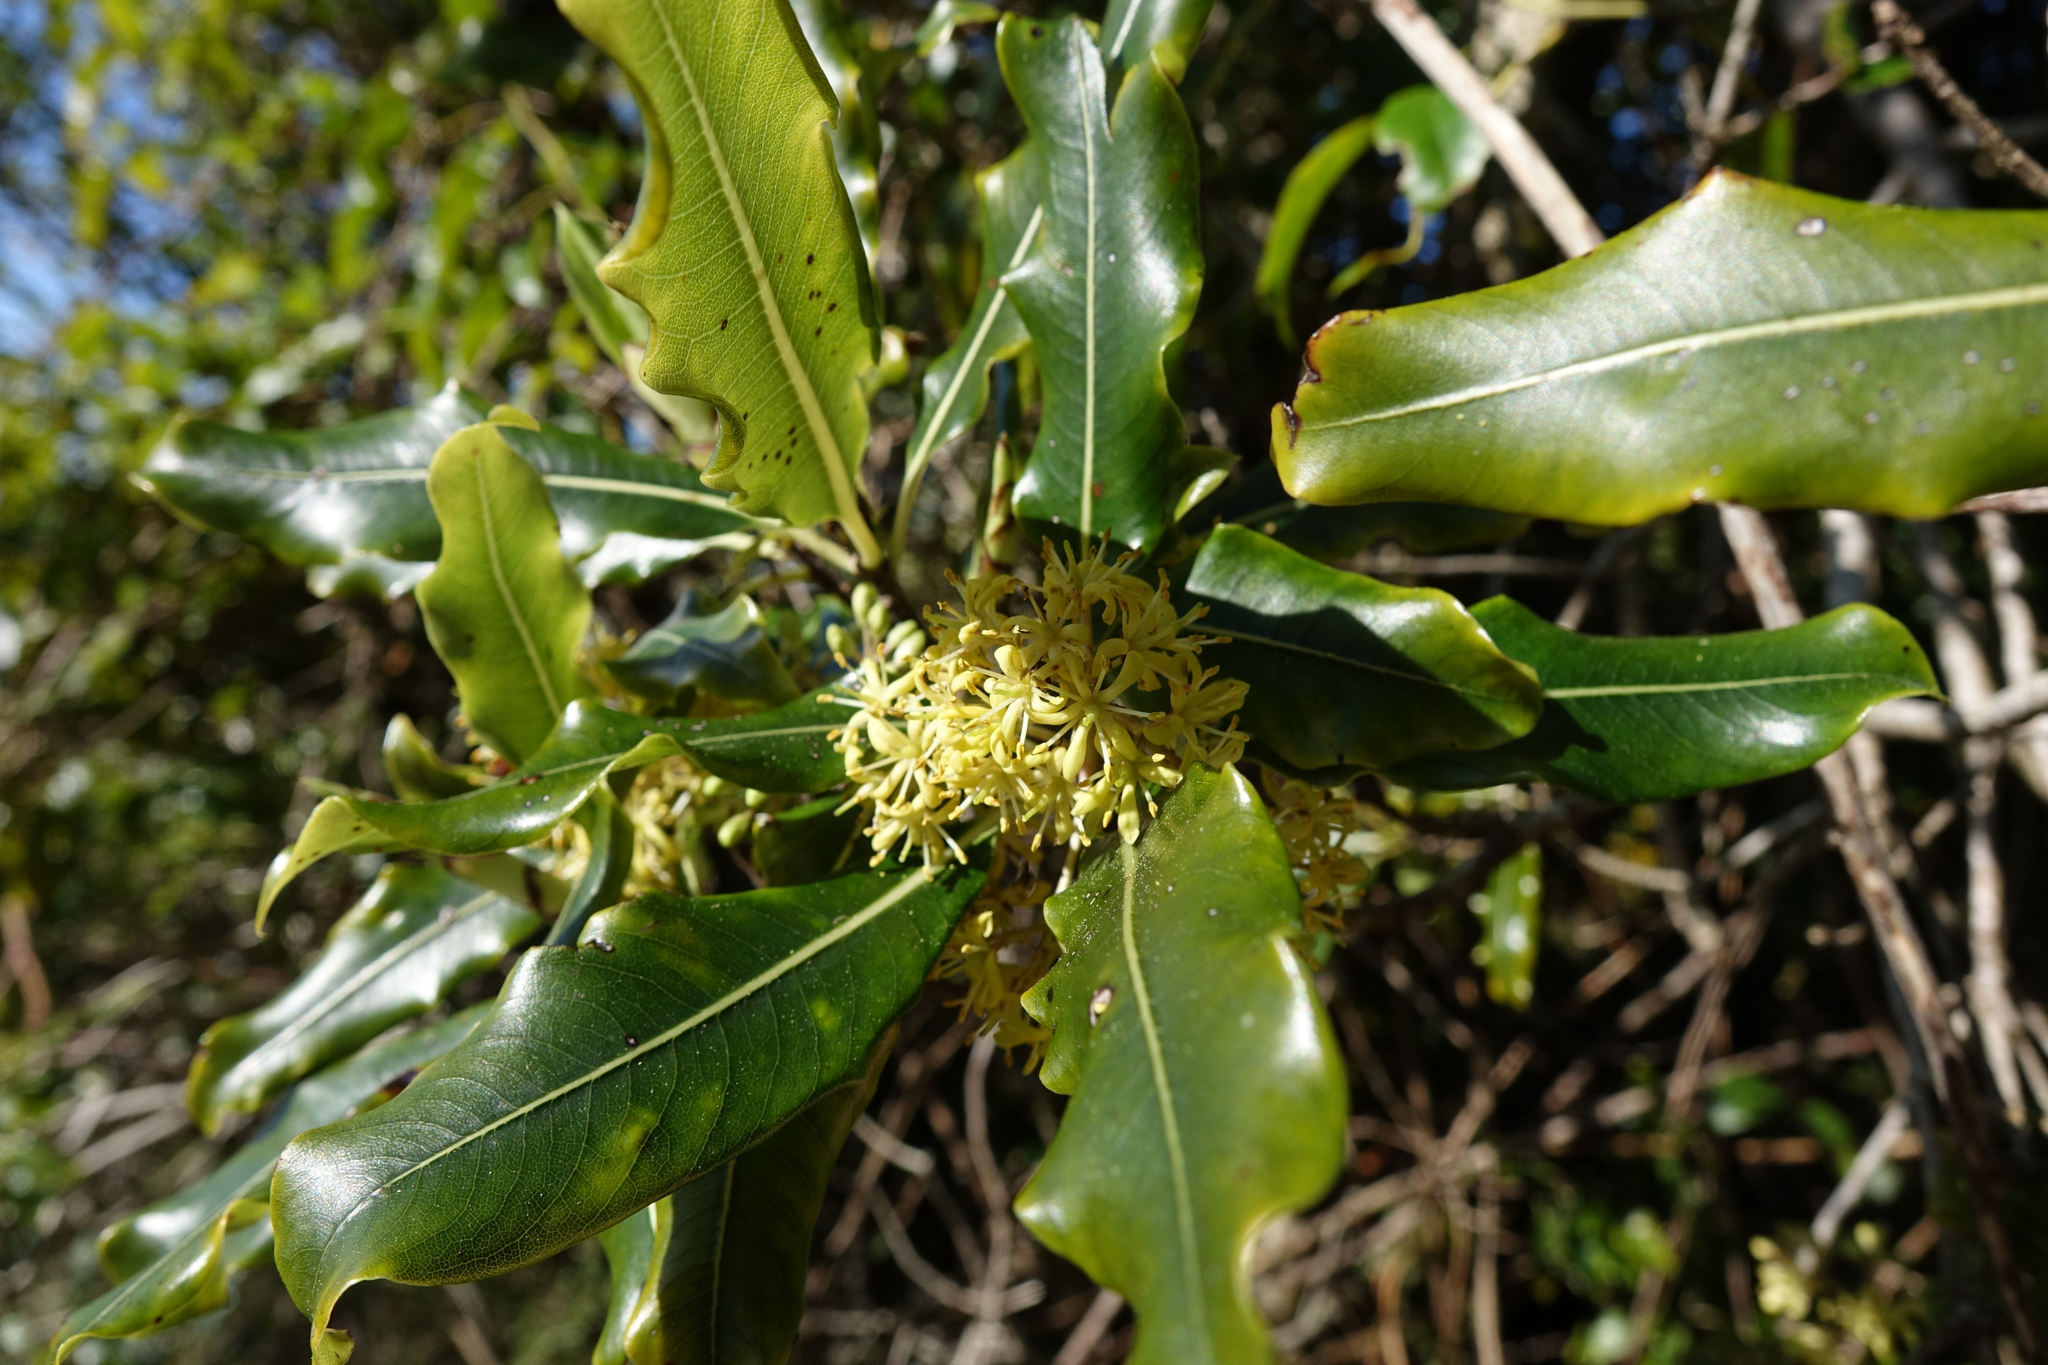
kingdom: Plantae
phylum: Tracheophyta
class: Magnoliopsida
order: Apiales
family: Pittosporaceae
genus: Pittosporum
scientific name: Pittosporum eugenioides
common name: Lemonwood
